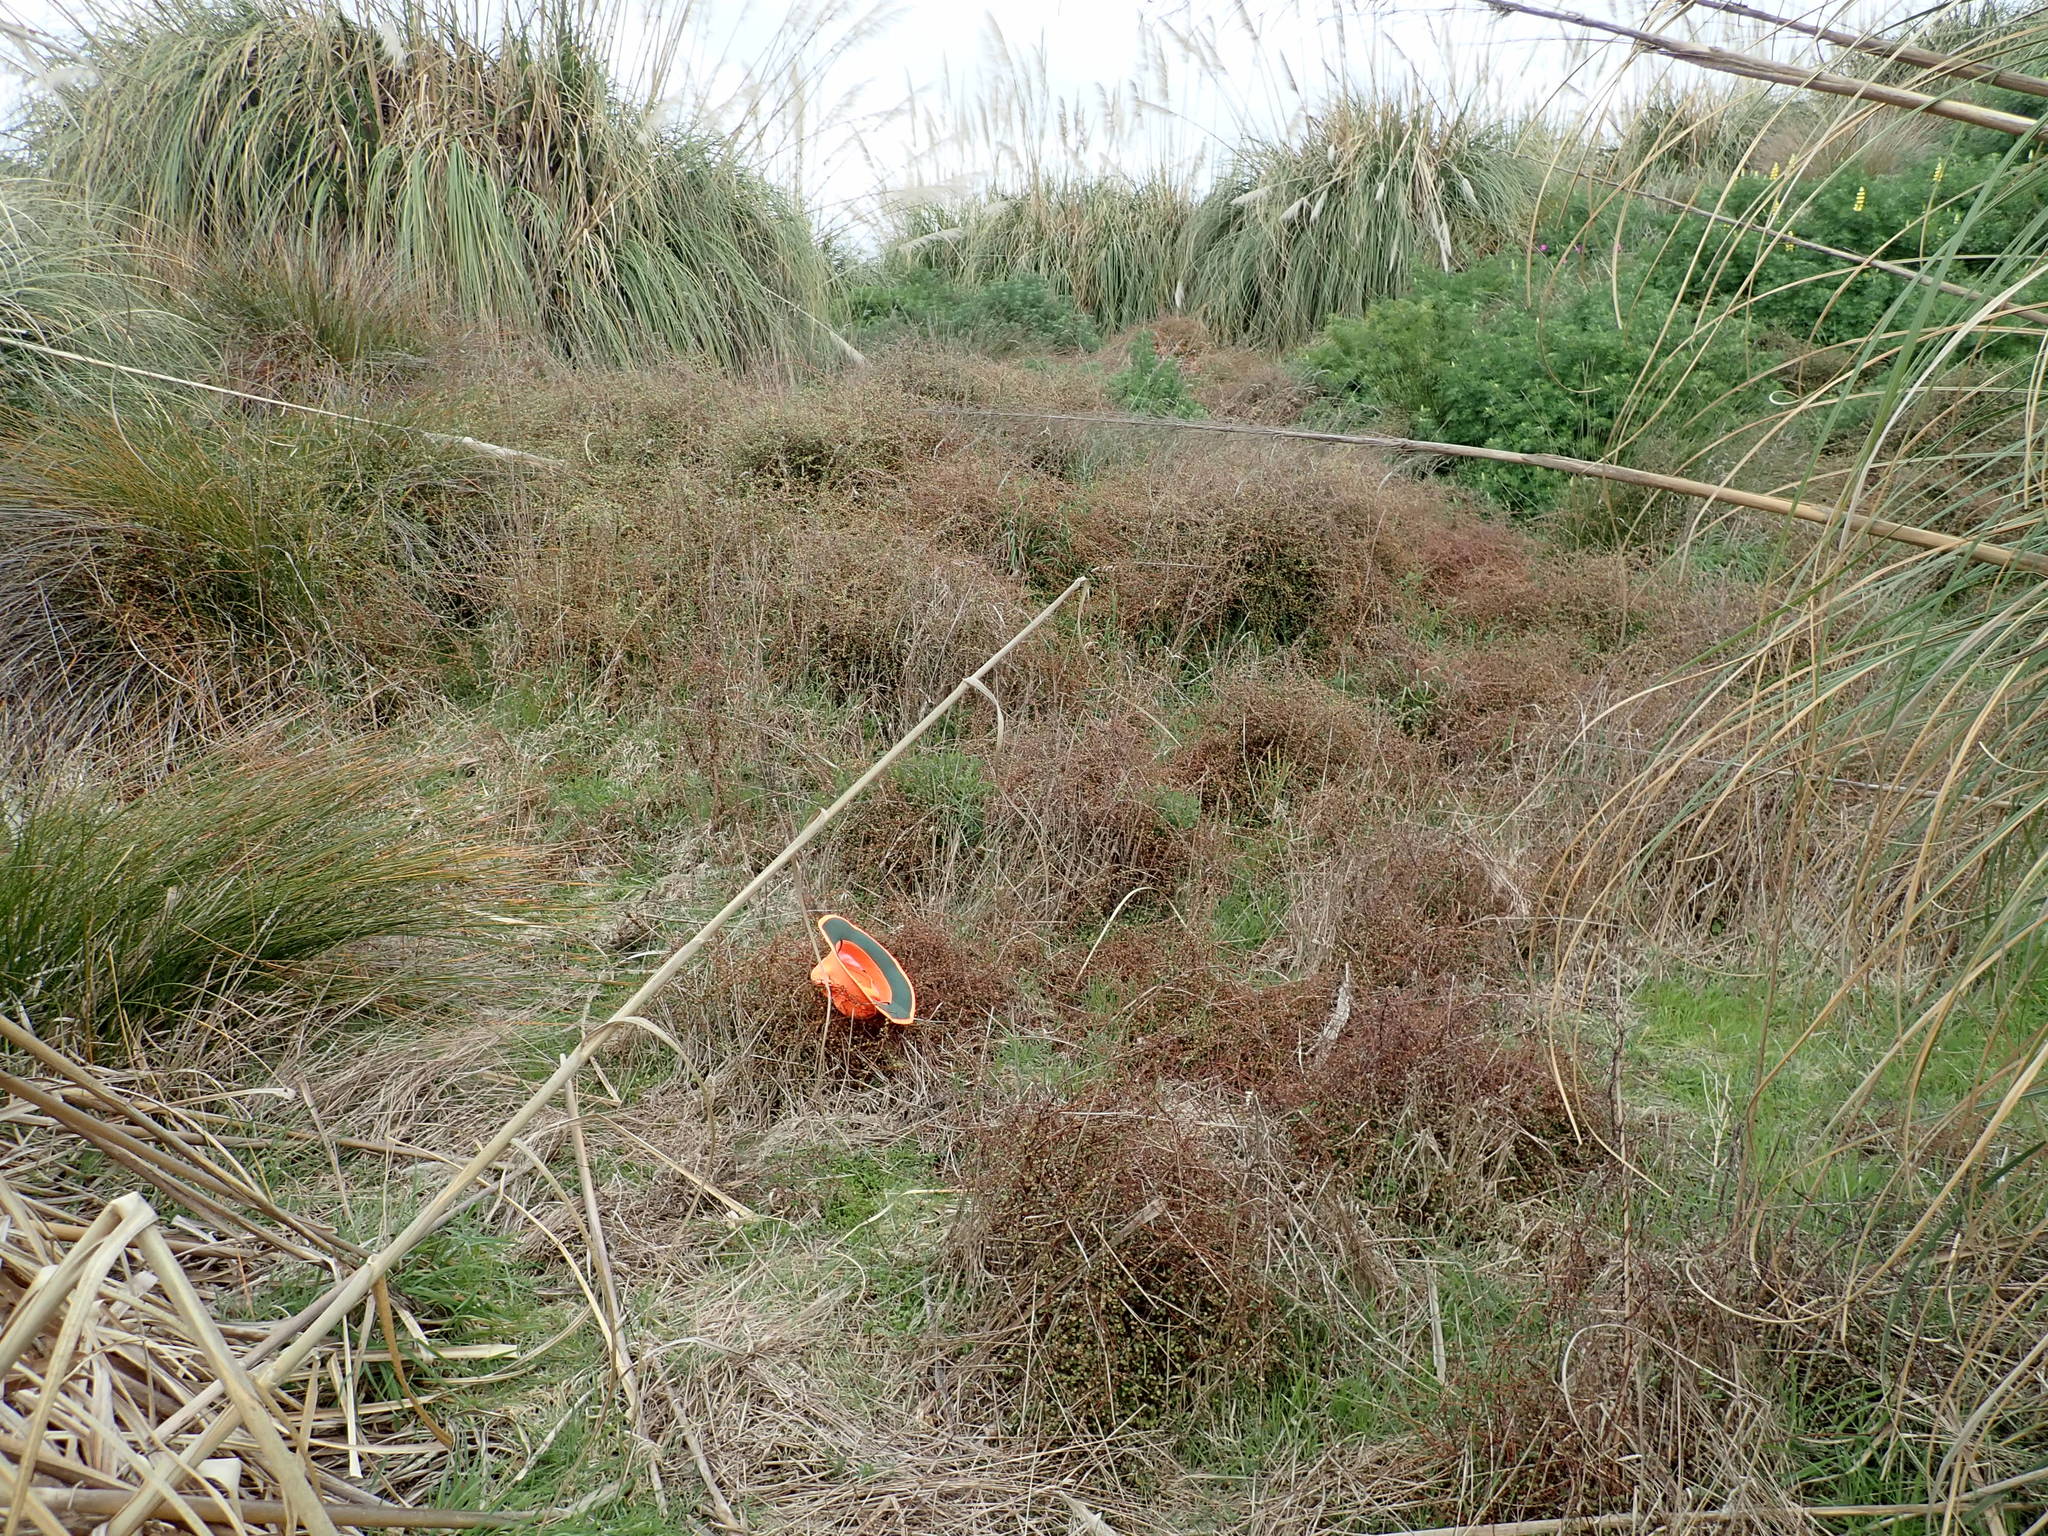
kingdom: Plantae
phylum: Tracheophyta
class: Magnoliopsida
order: Caryophyllales
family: Polygonaceae
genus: Muehlenbeckia
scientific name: Muehlenbeckia complexa
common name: Wireplant
